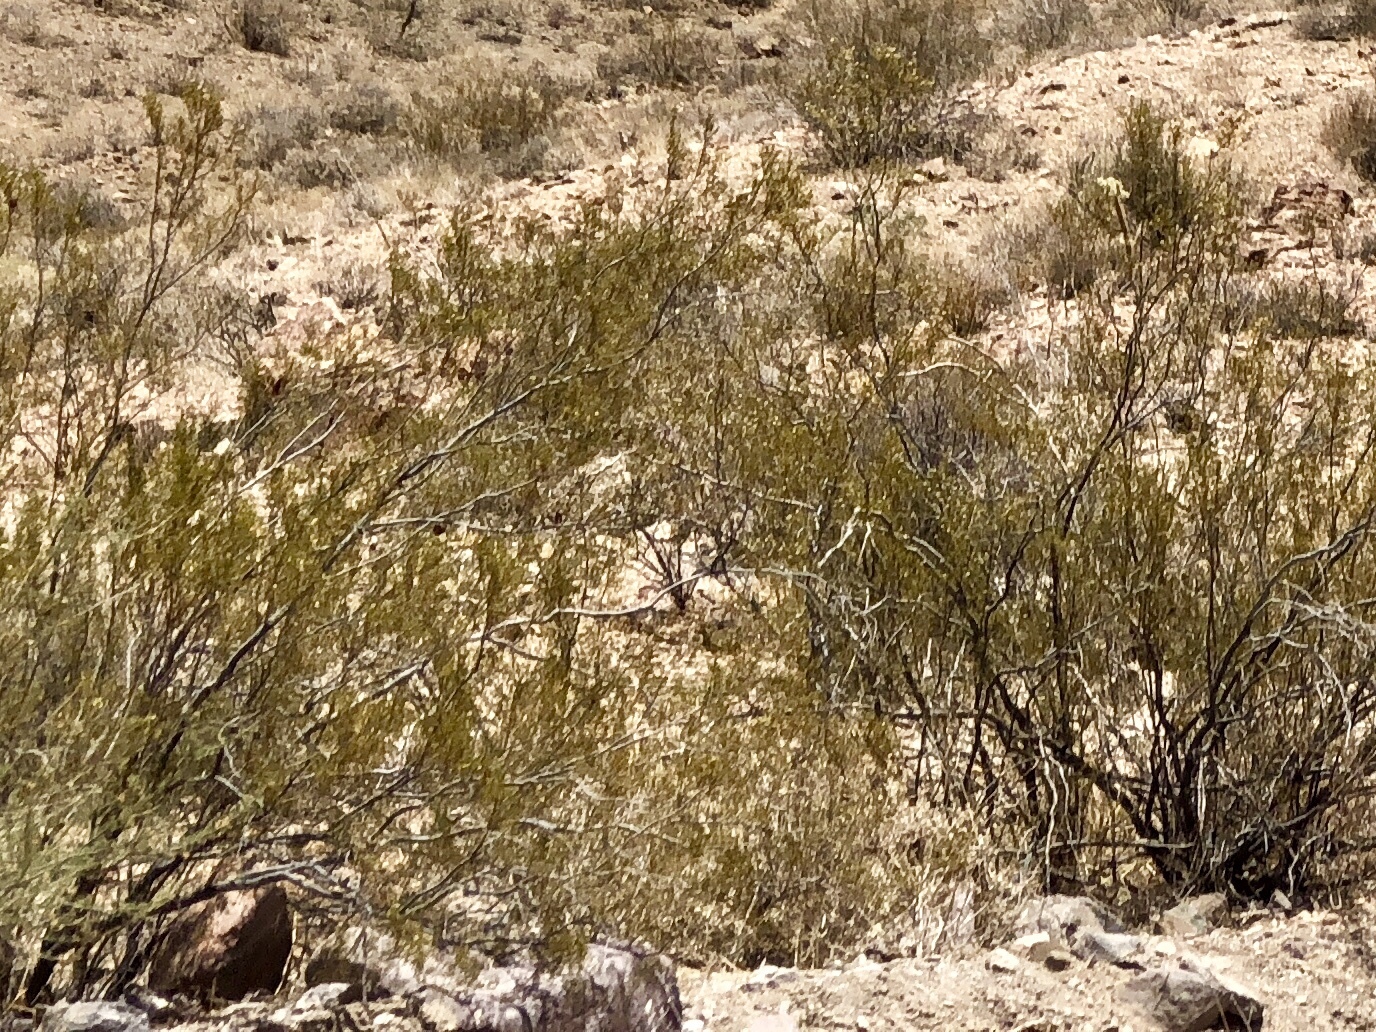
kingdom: Plantae
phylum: Tracheophyta
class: Magnoliopsida
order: Zygophyllales
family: Zygophyllaceae
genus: Larrea
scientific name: Larrea tridentata
